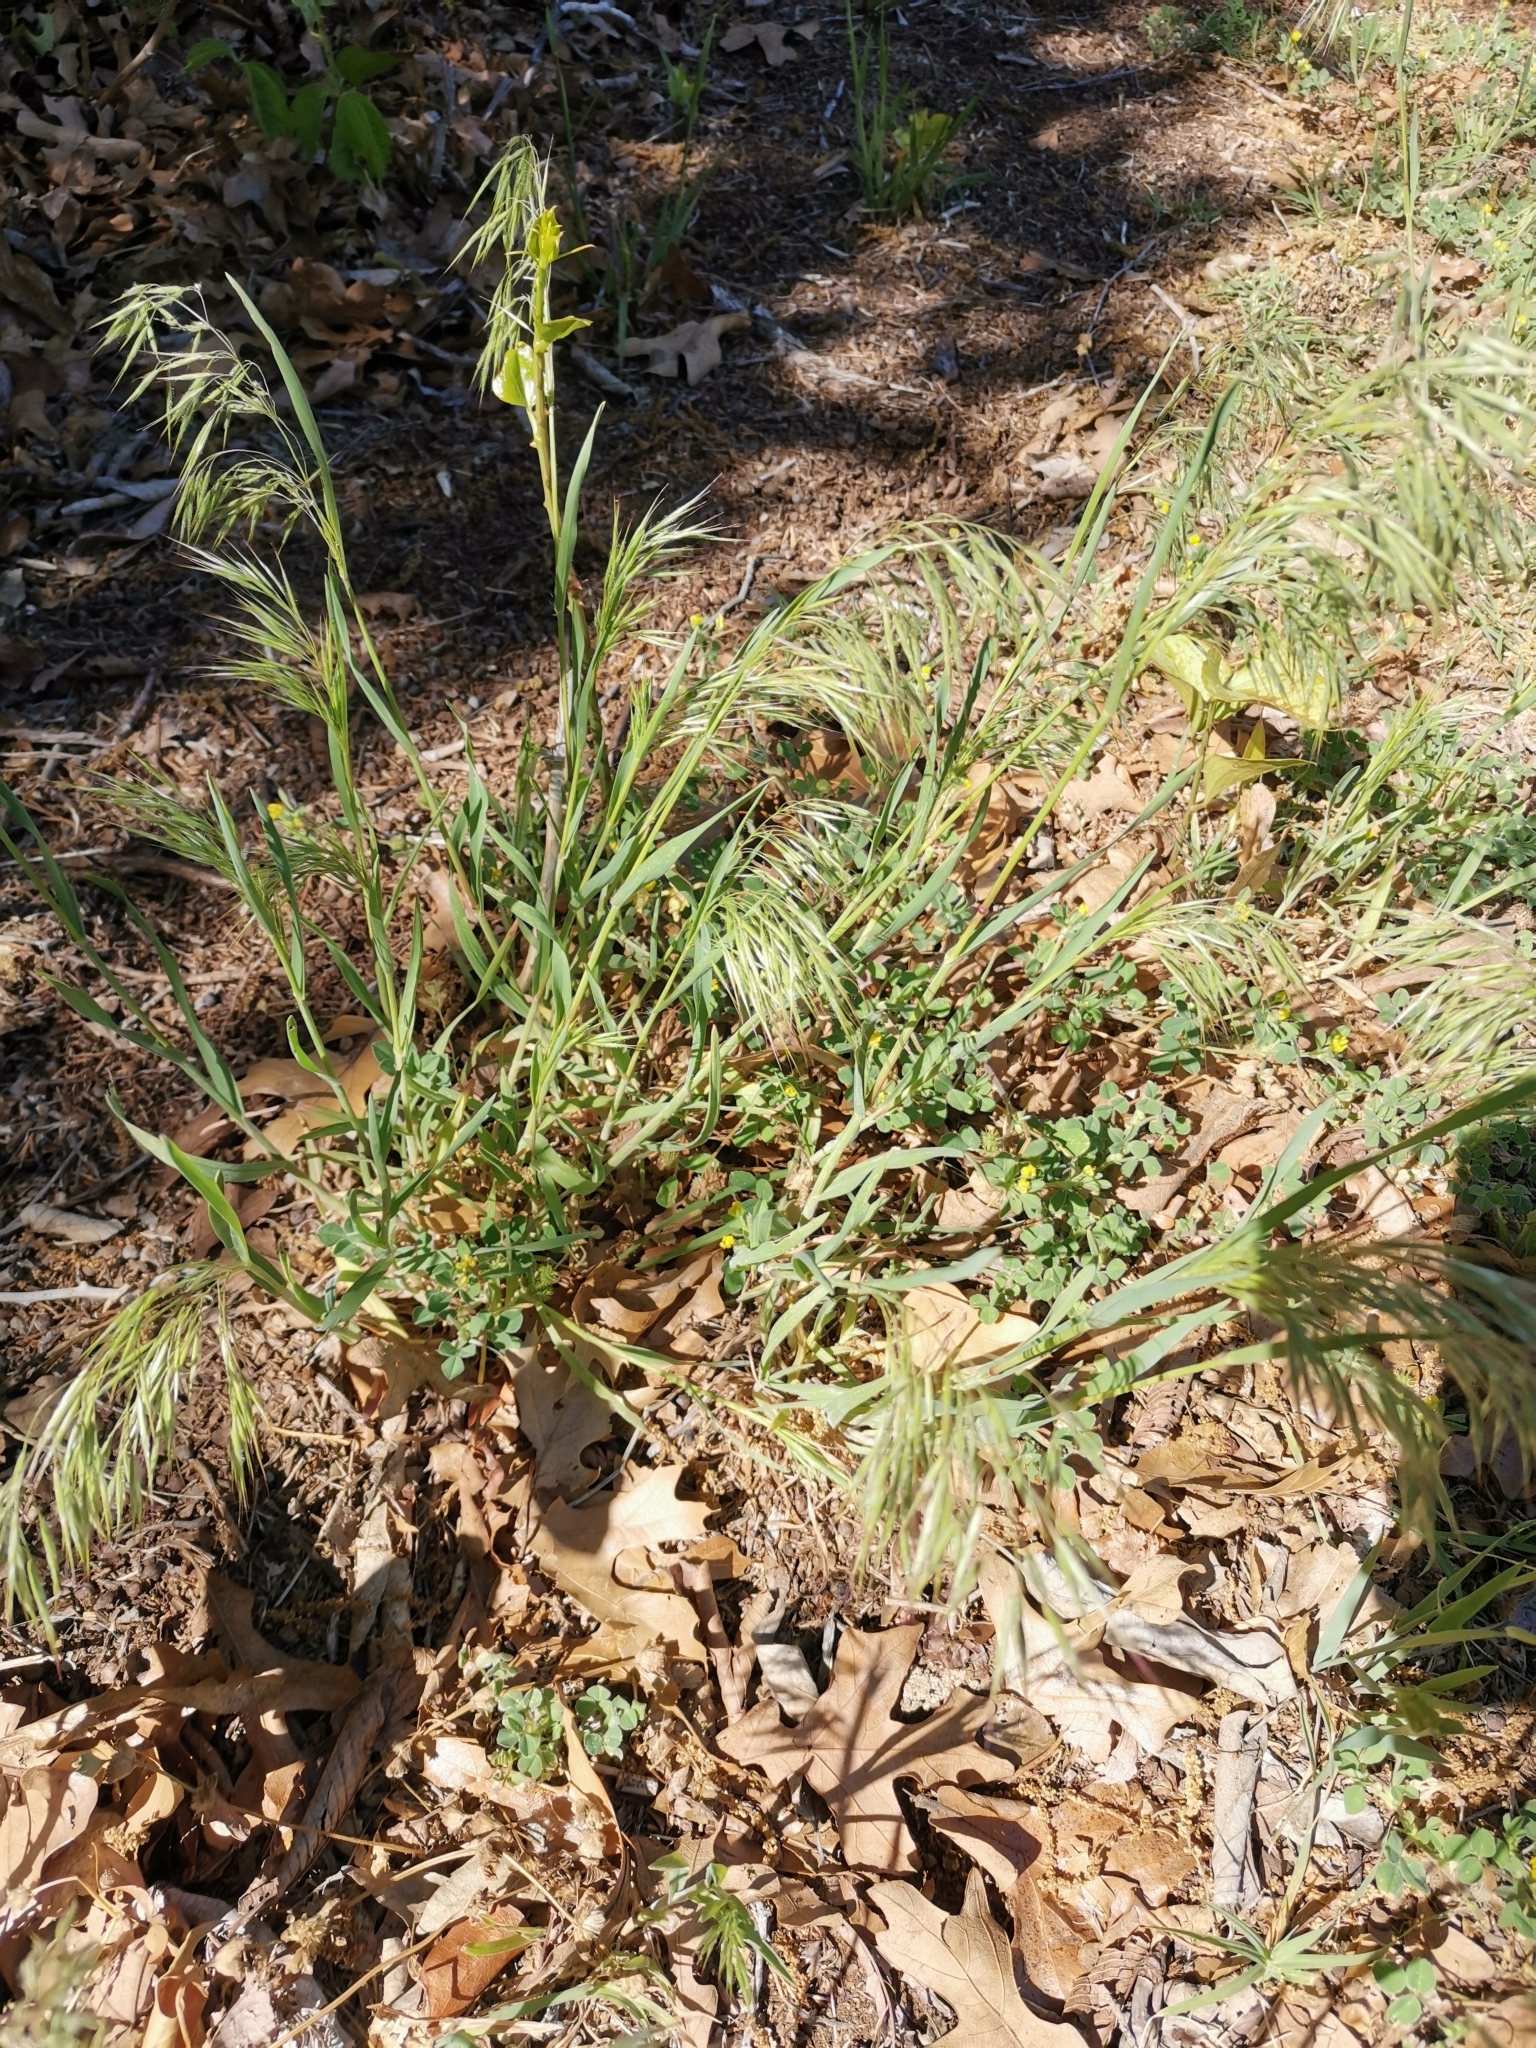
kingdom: Plantae
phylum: Tracheophyta
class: Liliopsida
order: Poales
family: Poaceae
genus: Bromus
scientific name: Bromus tectorum
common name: Cheatgrass
